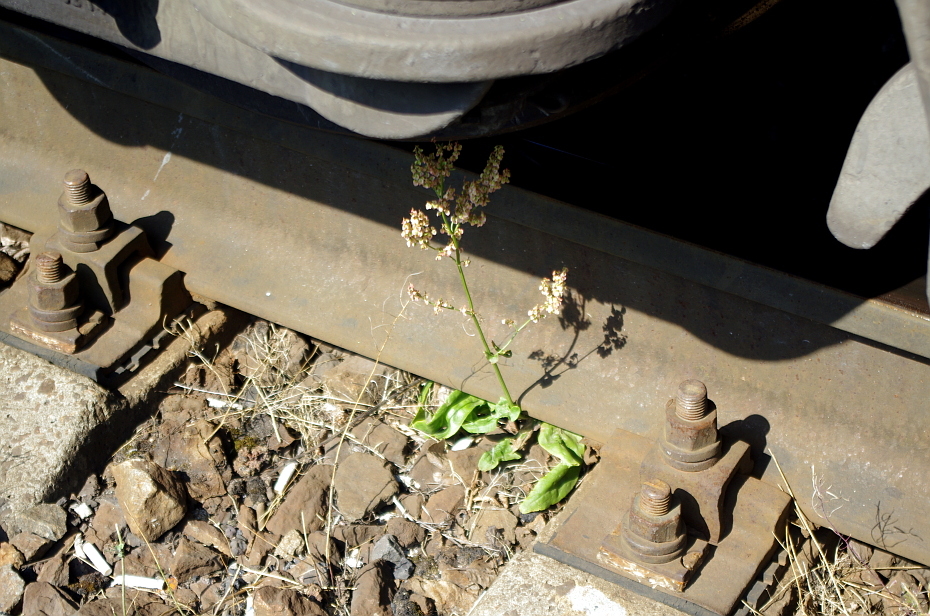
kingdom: Plantae
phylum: Tracheophyta
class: Magnoliopsida
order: Caryophyllales
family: Polygonaceae
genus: Rumex
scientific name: Rumex thyrsiflorus
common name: Garden sorrel
